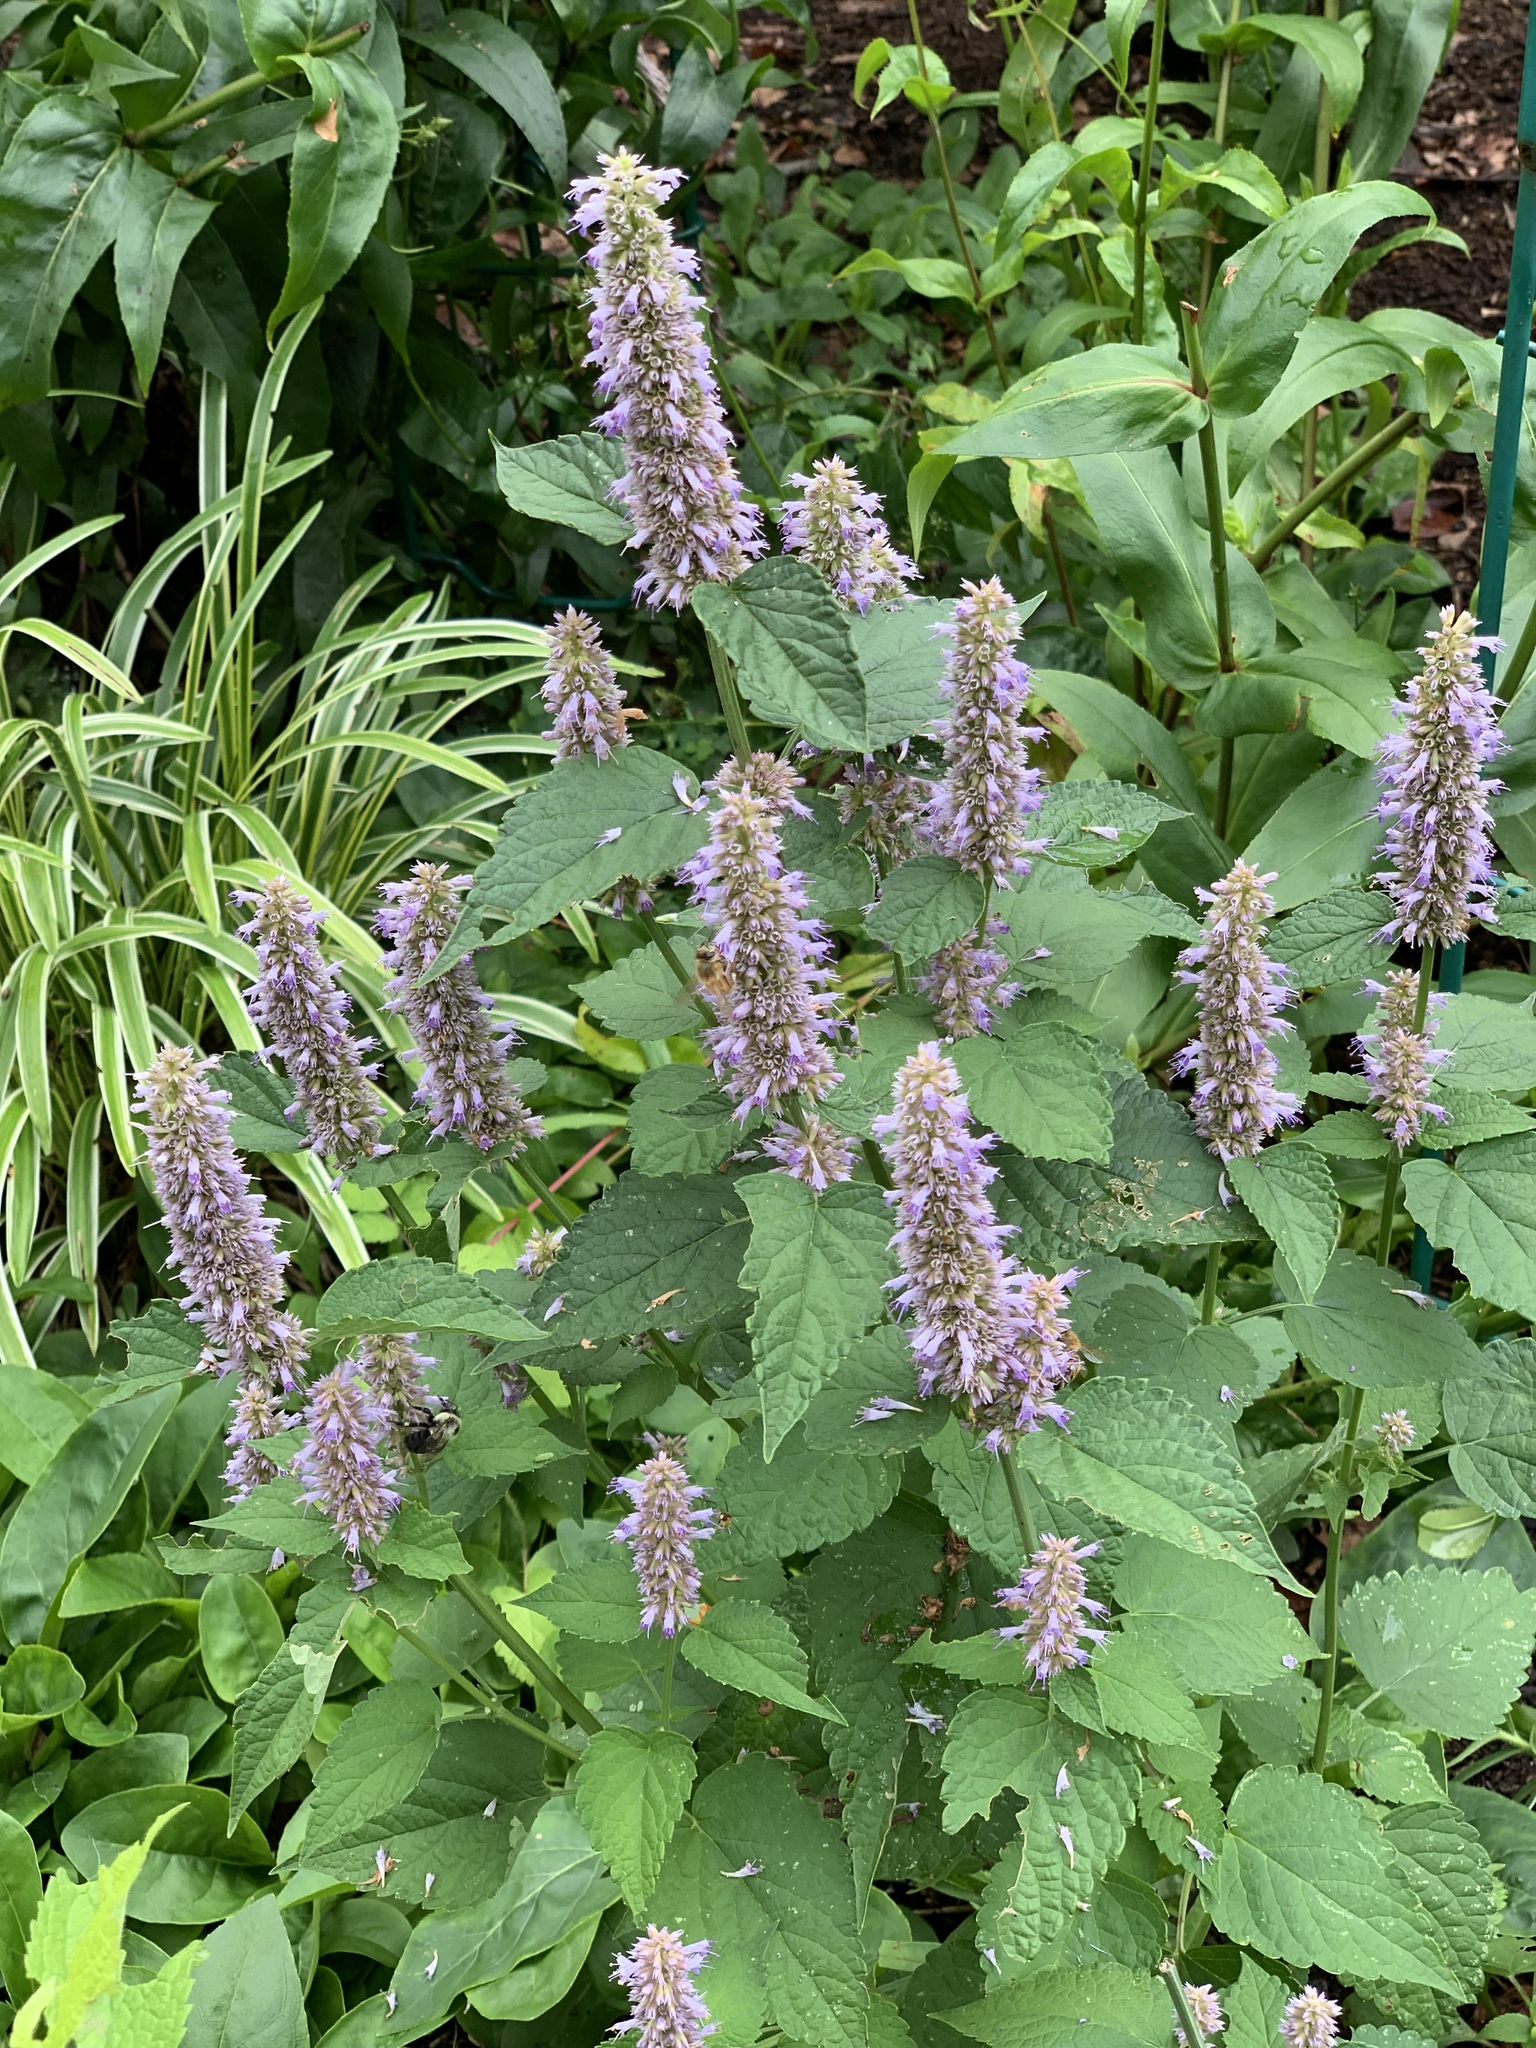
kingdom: Plantae
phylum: Tracheophyta
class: Magnoliopsida
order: Lamiales
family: Lamiaceae
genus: Agastache
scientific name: Agastache foeniculum
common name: Anise hyssop
